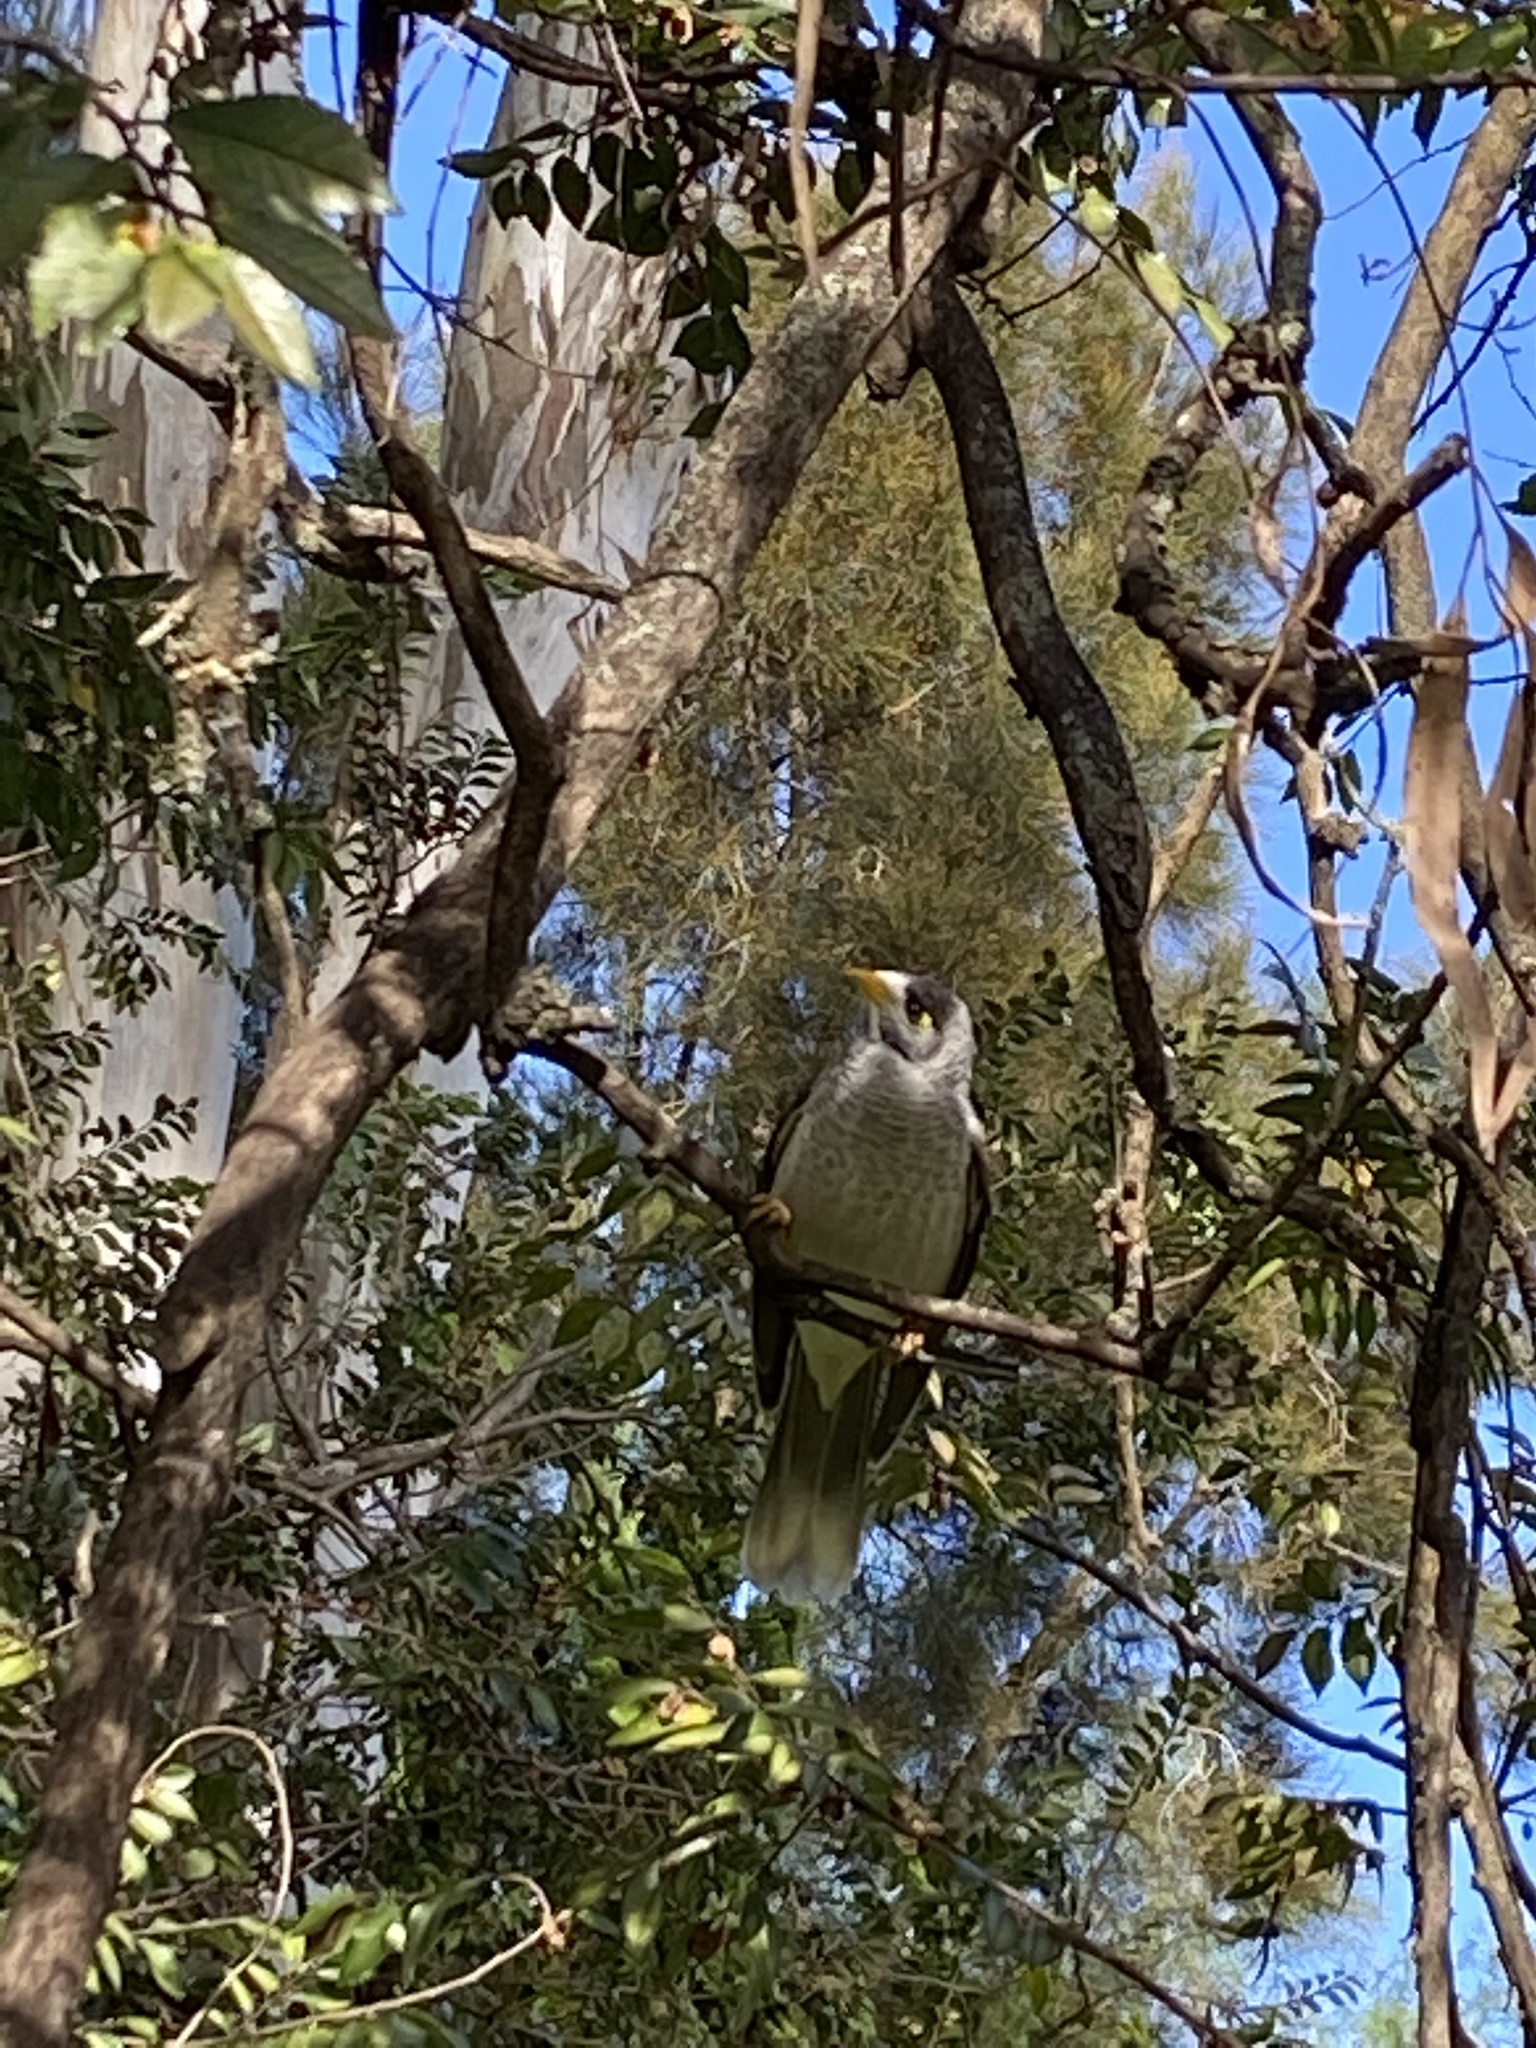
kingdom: Animalia
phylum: Chordata
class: Aves
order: Passeriformes
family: Meliphagidae
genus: Manorina
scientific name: Manorina melanocephala
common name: Noisy miner
